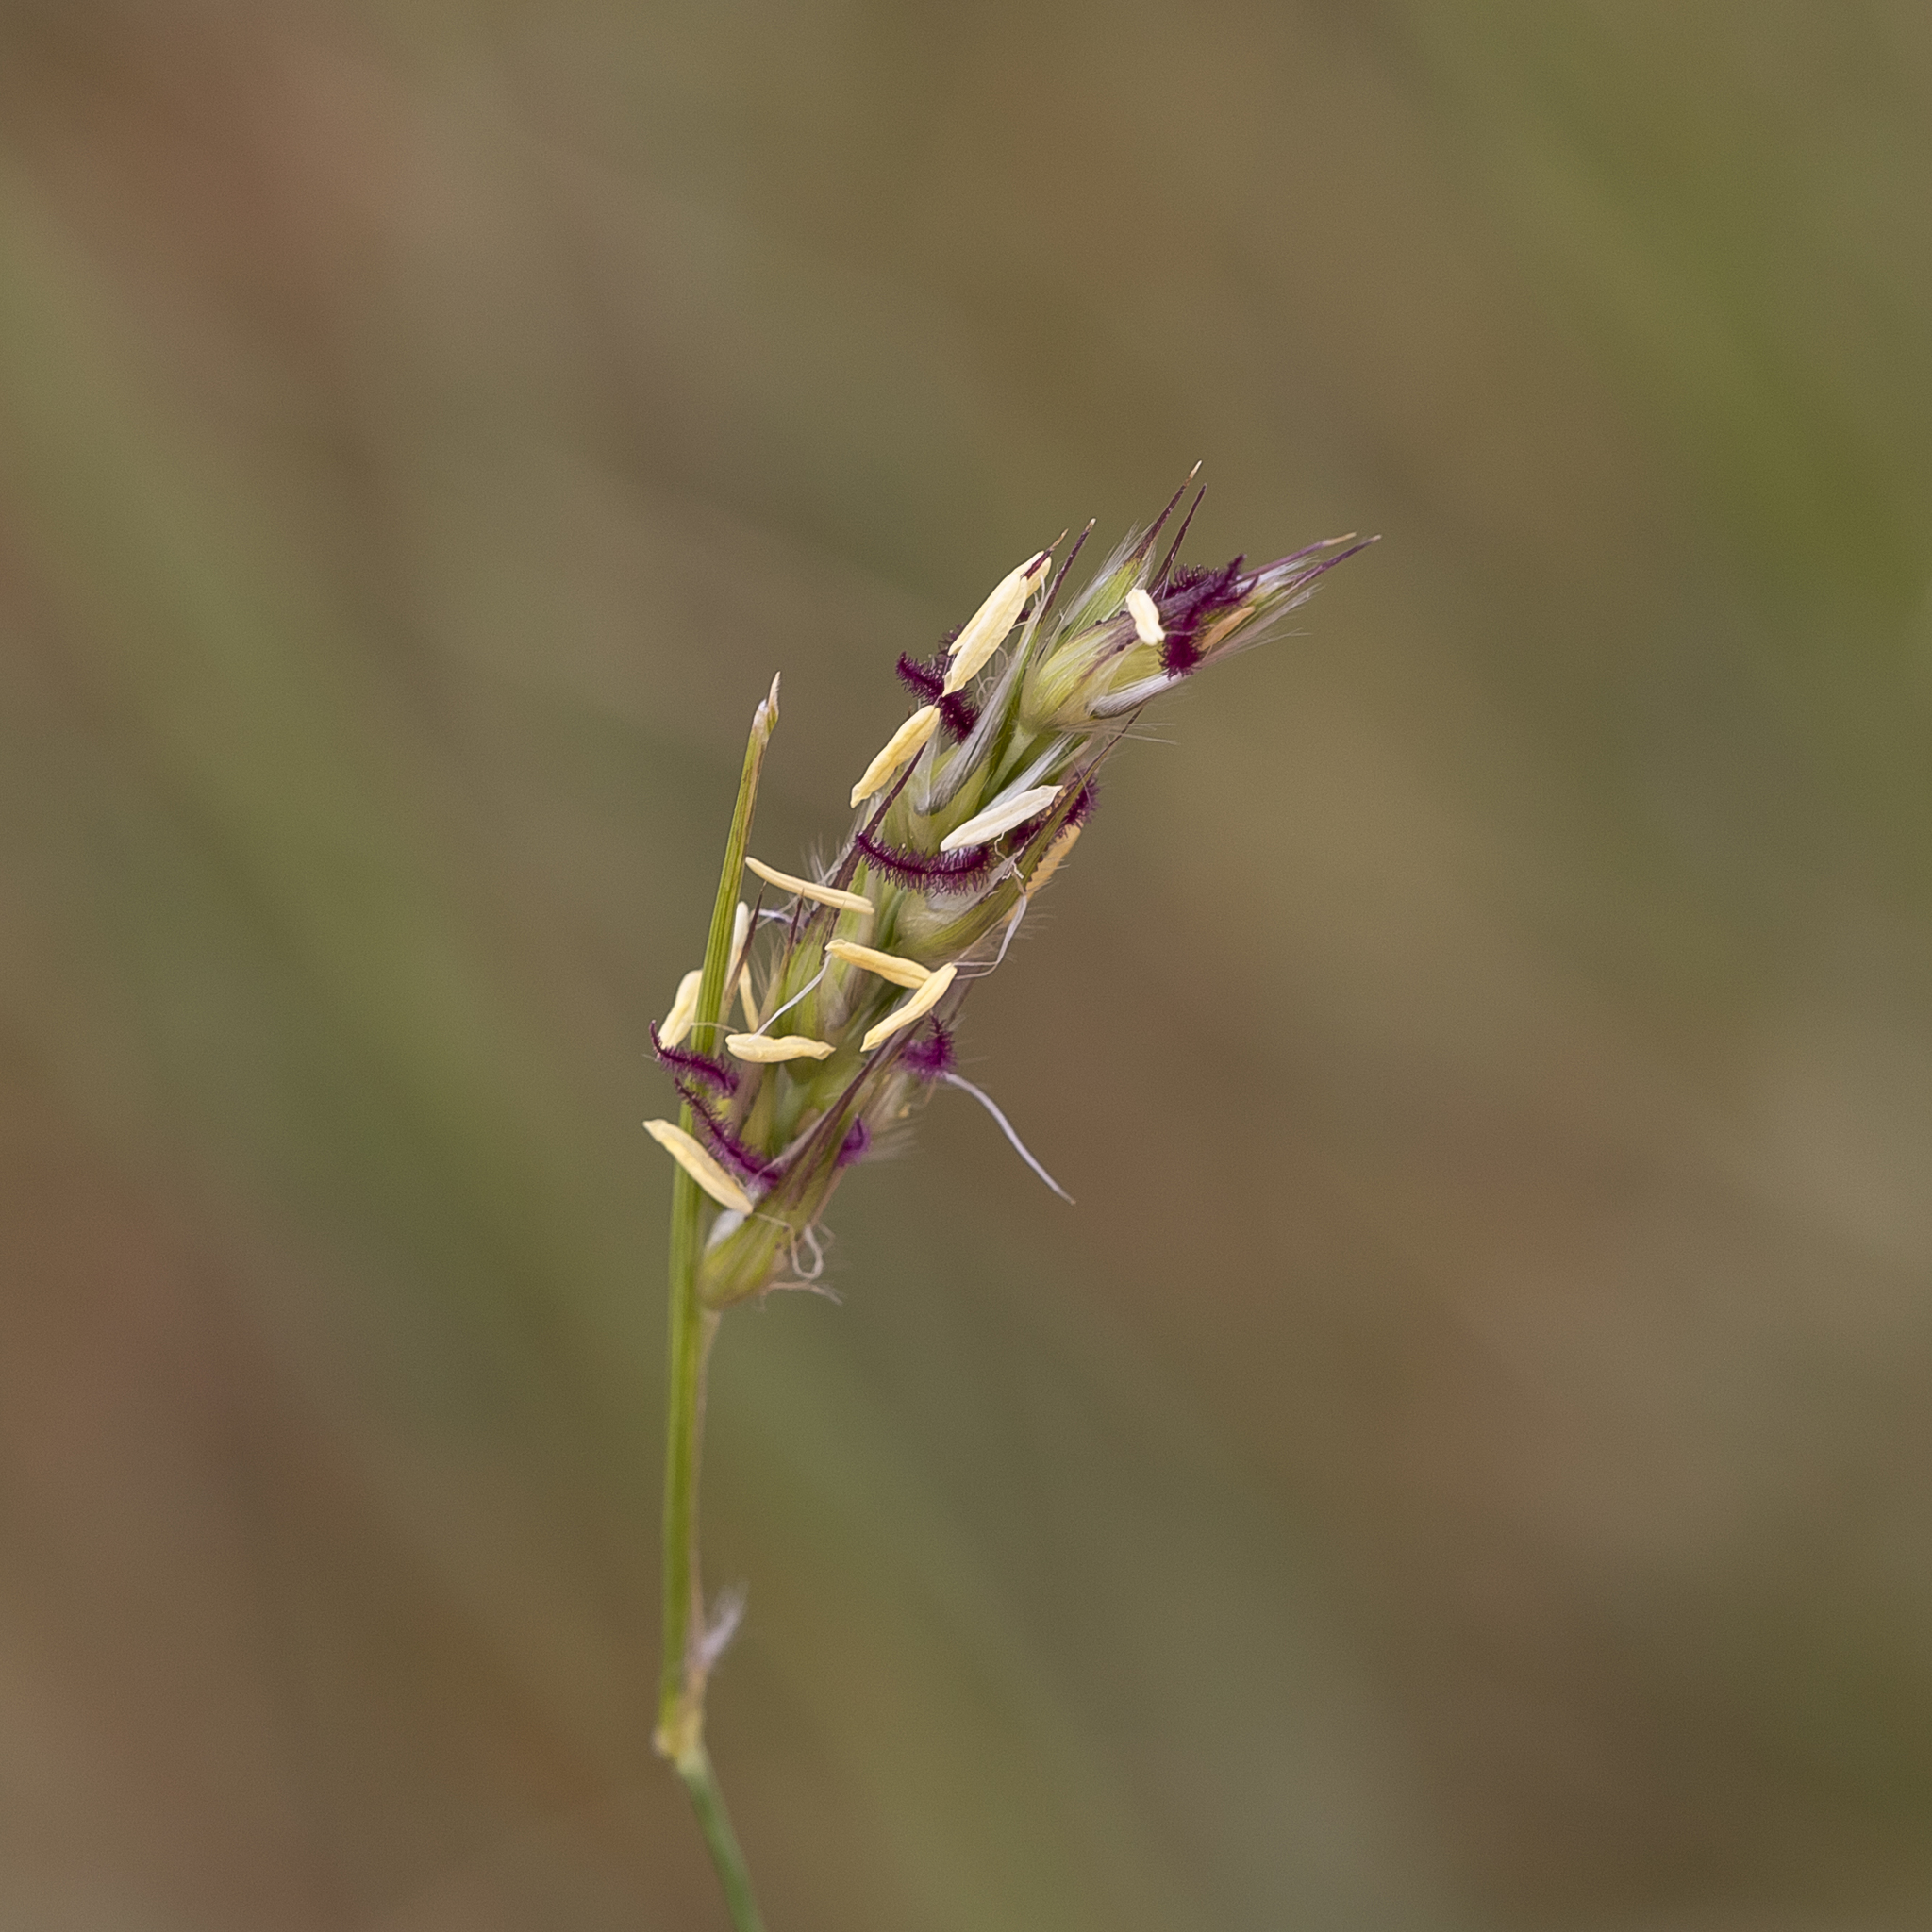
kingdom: Plantae
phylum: Tracheophyta
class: Liliopsida
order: Poales
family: Poaceae
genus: Neurachne
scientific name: Neurachne muelleri
